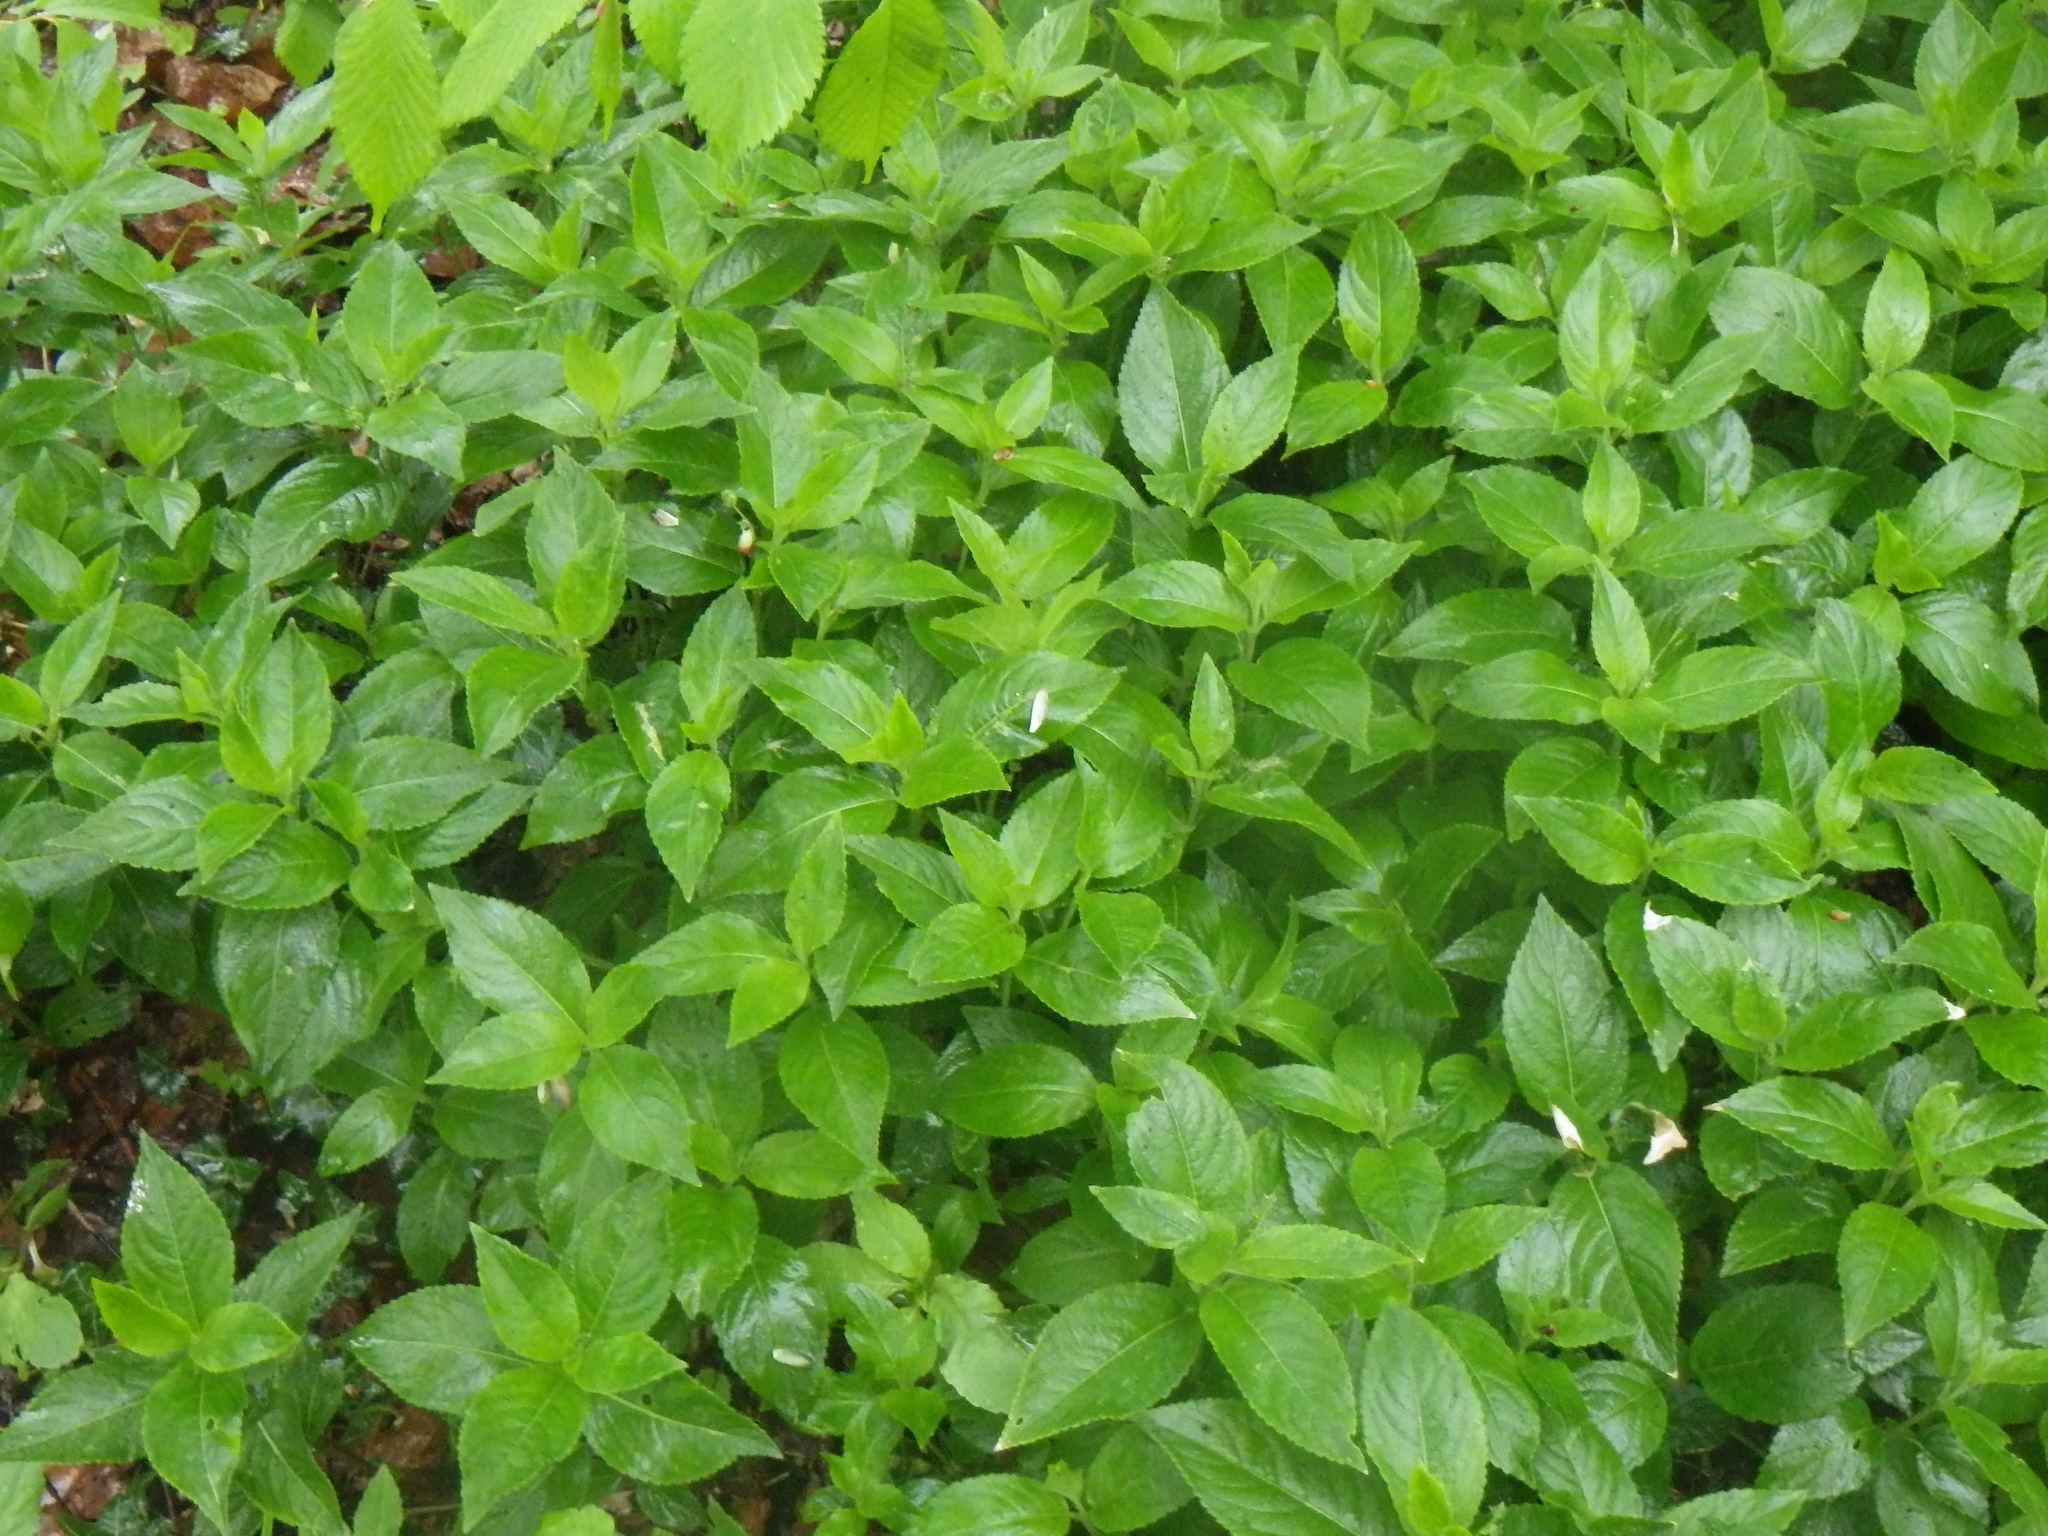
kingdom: Plantae
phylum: Tracheophyta
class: Magnoliopsida
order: Malpighiales
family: Euphorbiaceae
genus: Mercurialis
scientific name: Mercurialis perennis
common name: Dog mercury
